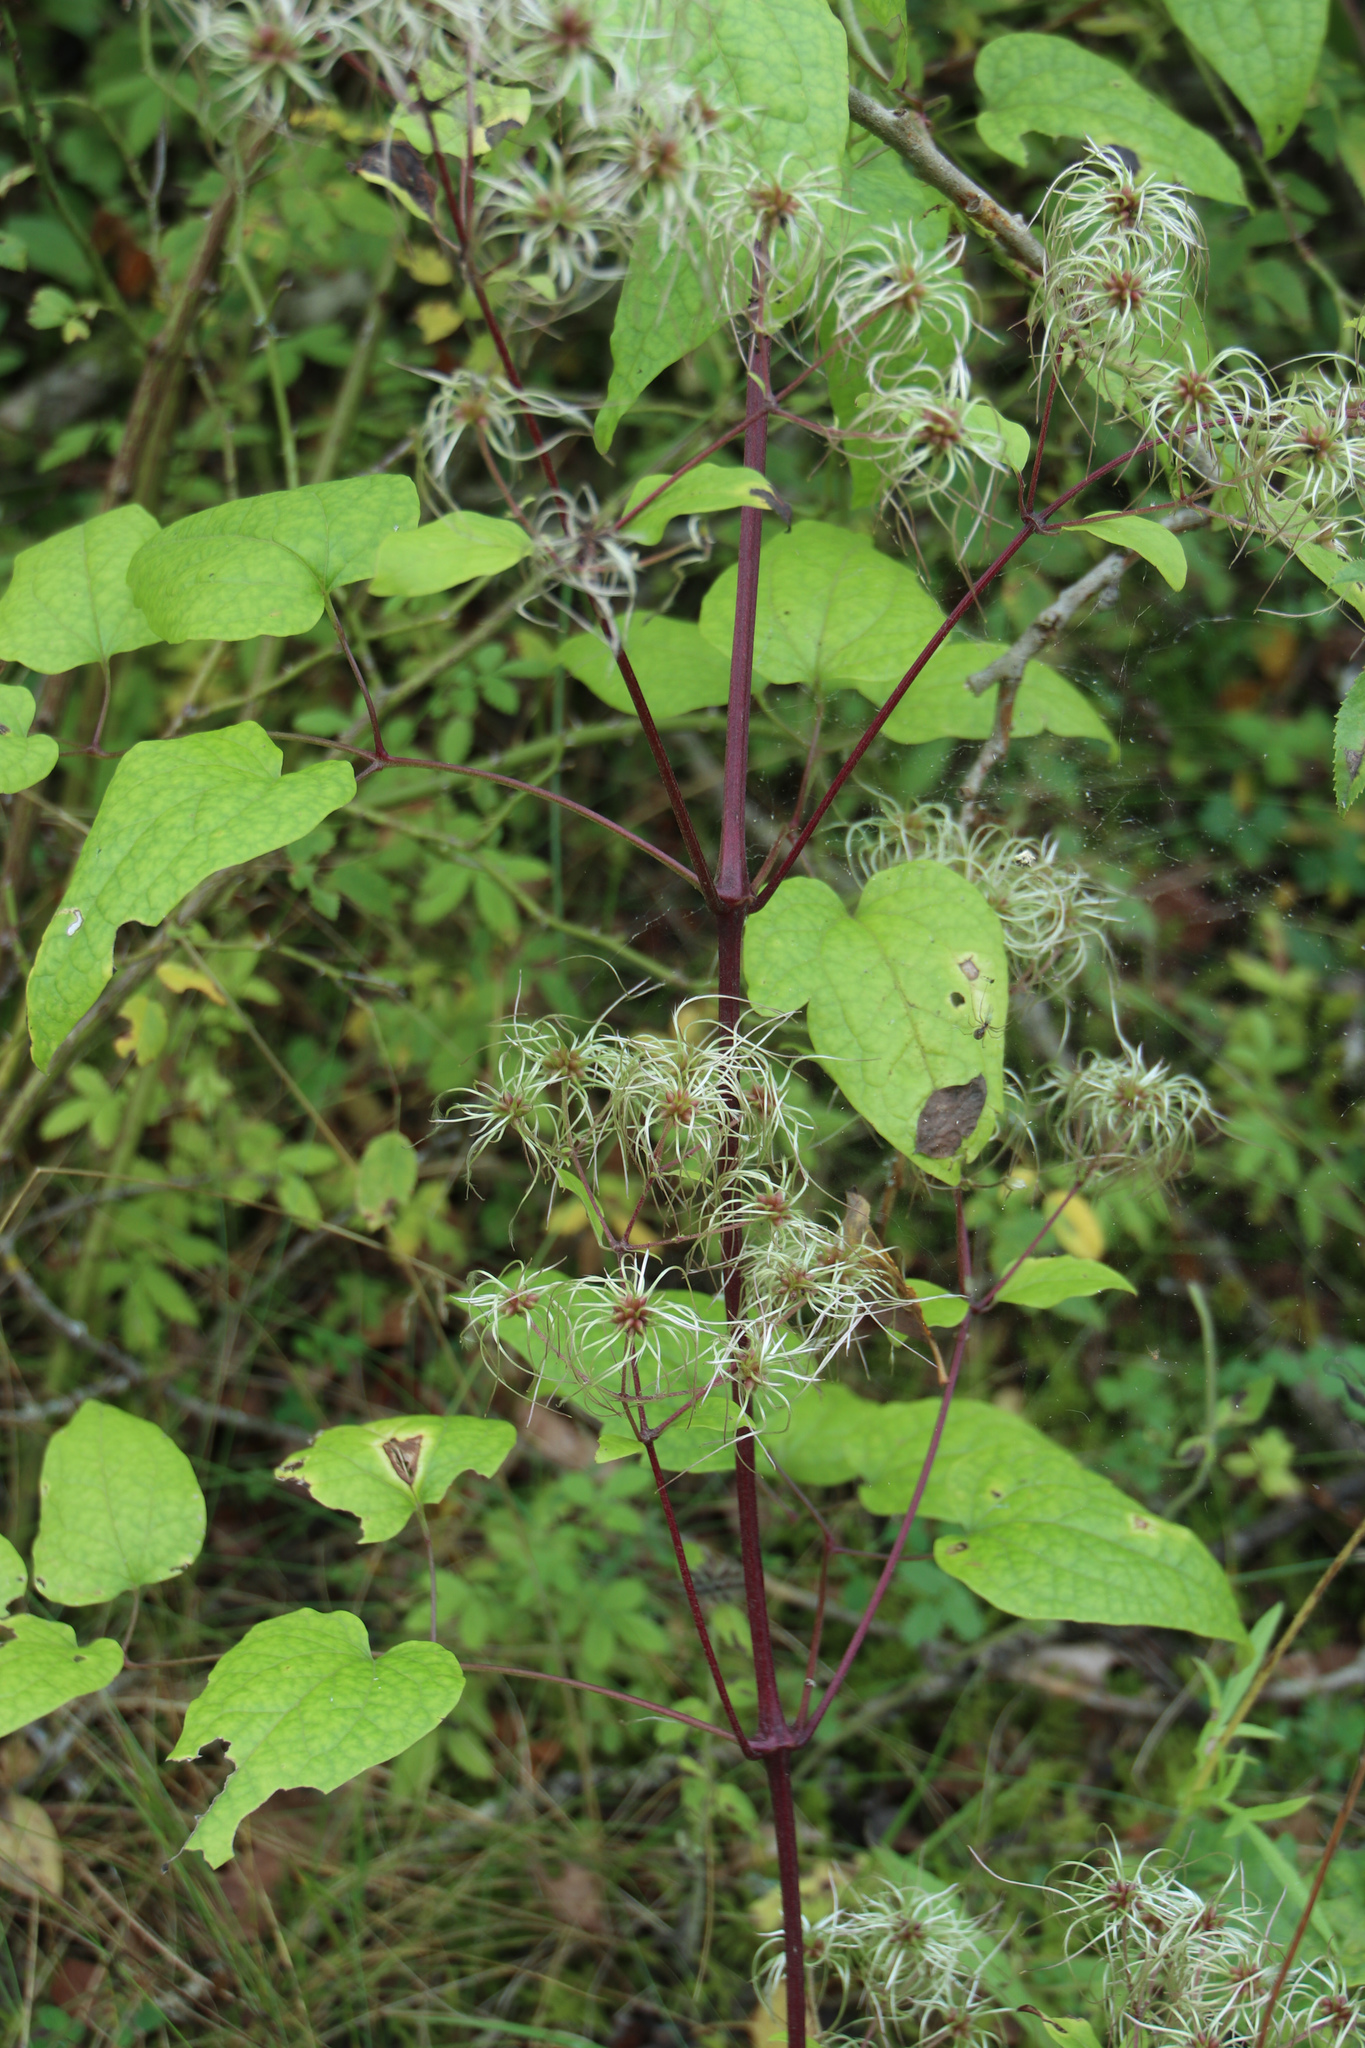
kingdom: Plantae
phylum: Tracheophyta
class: Magnoliopsida
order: Ranunculales
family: Ranunculaceae
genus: Clematis
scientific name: Clematis vitalba
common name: Evergreen clematis
